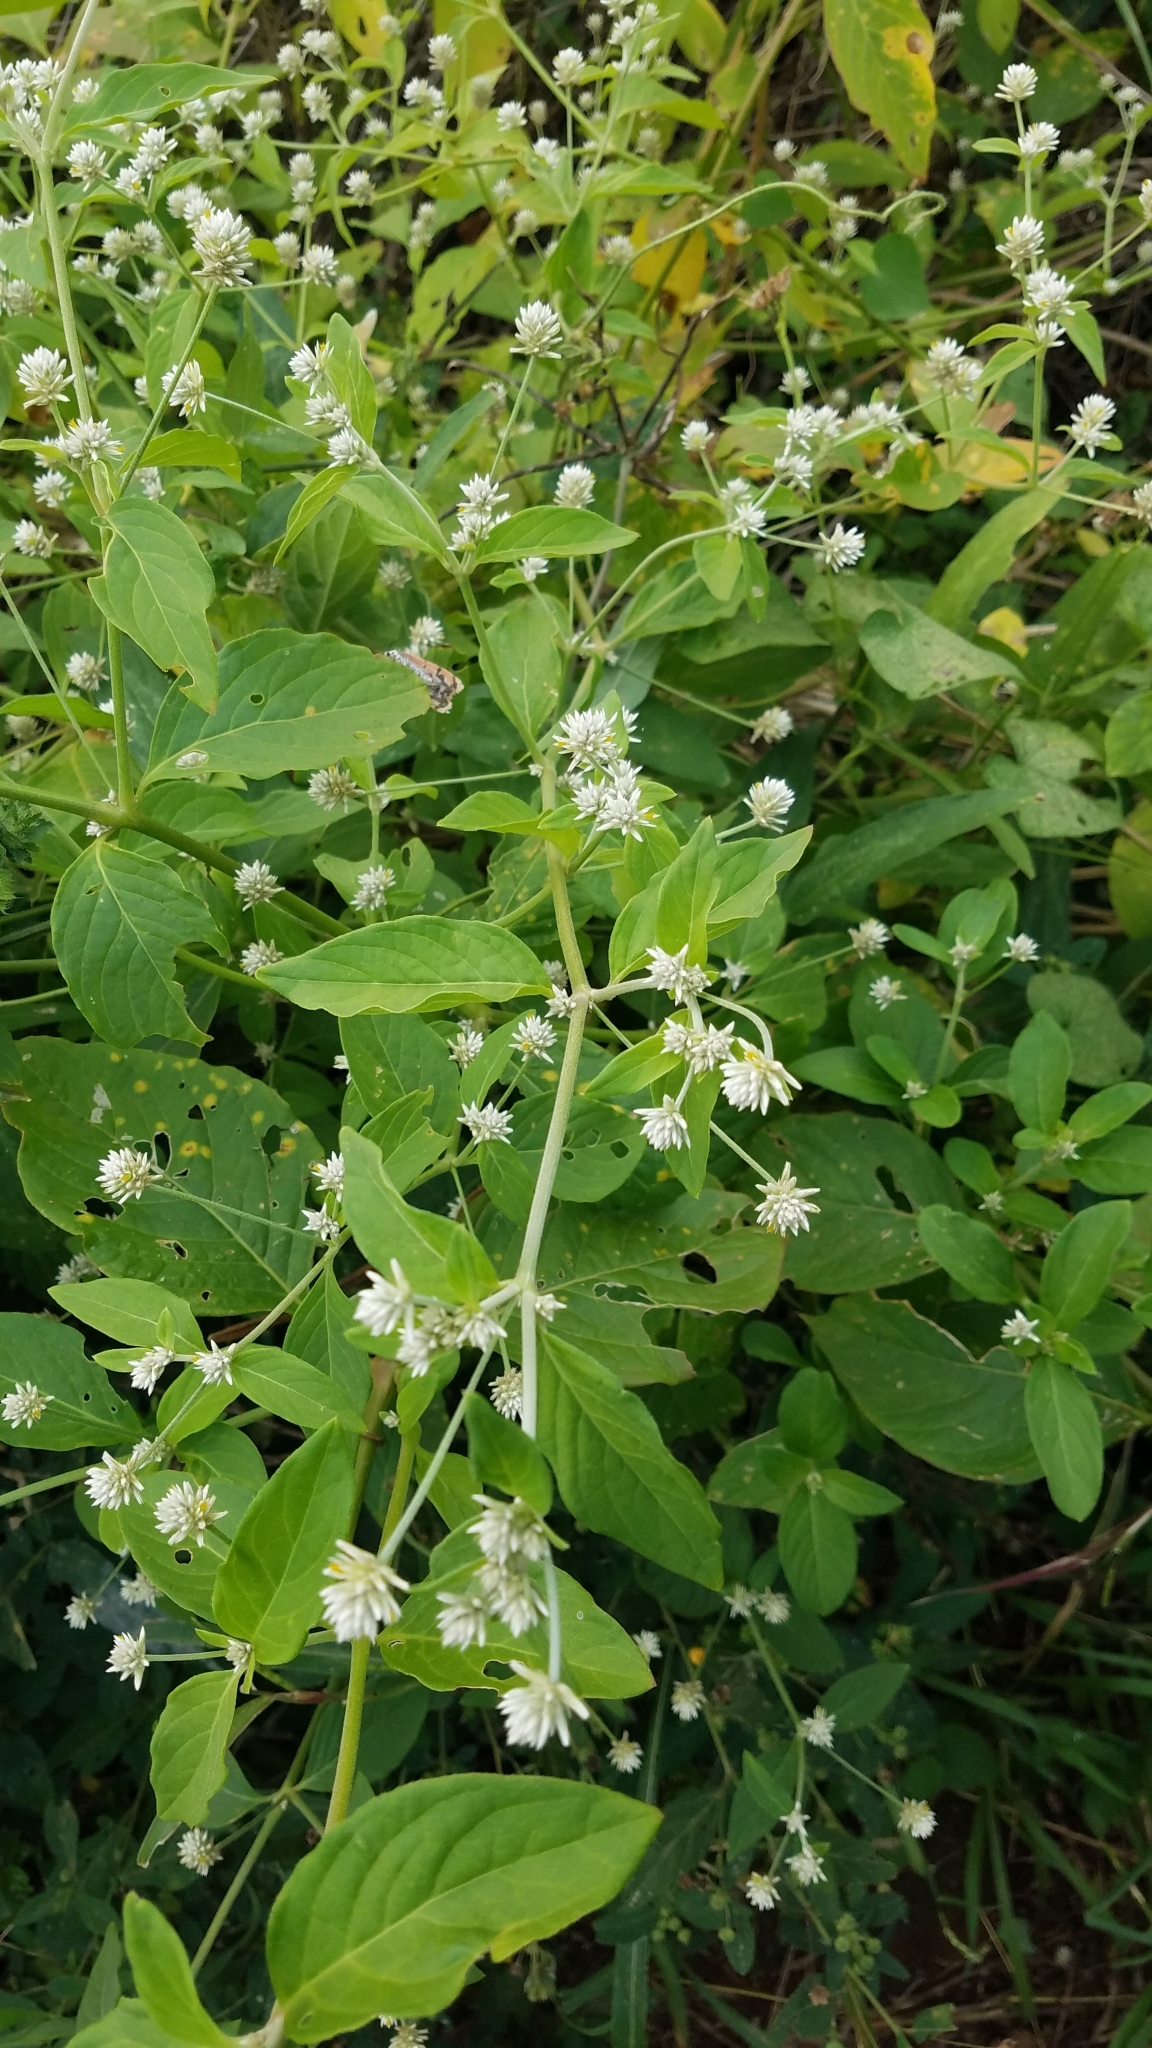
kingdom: Plantae
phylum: Tracheophyta
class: Magnoliopsida
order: Caryophyllales
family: Amaranthaceae
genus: Alternanthera
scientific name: Alternanthera pubiflora
